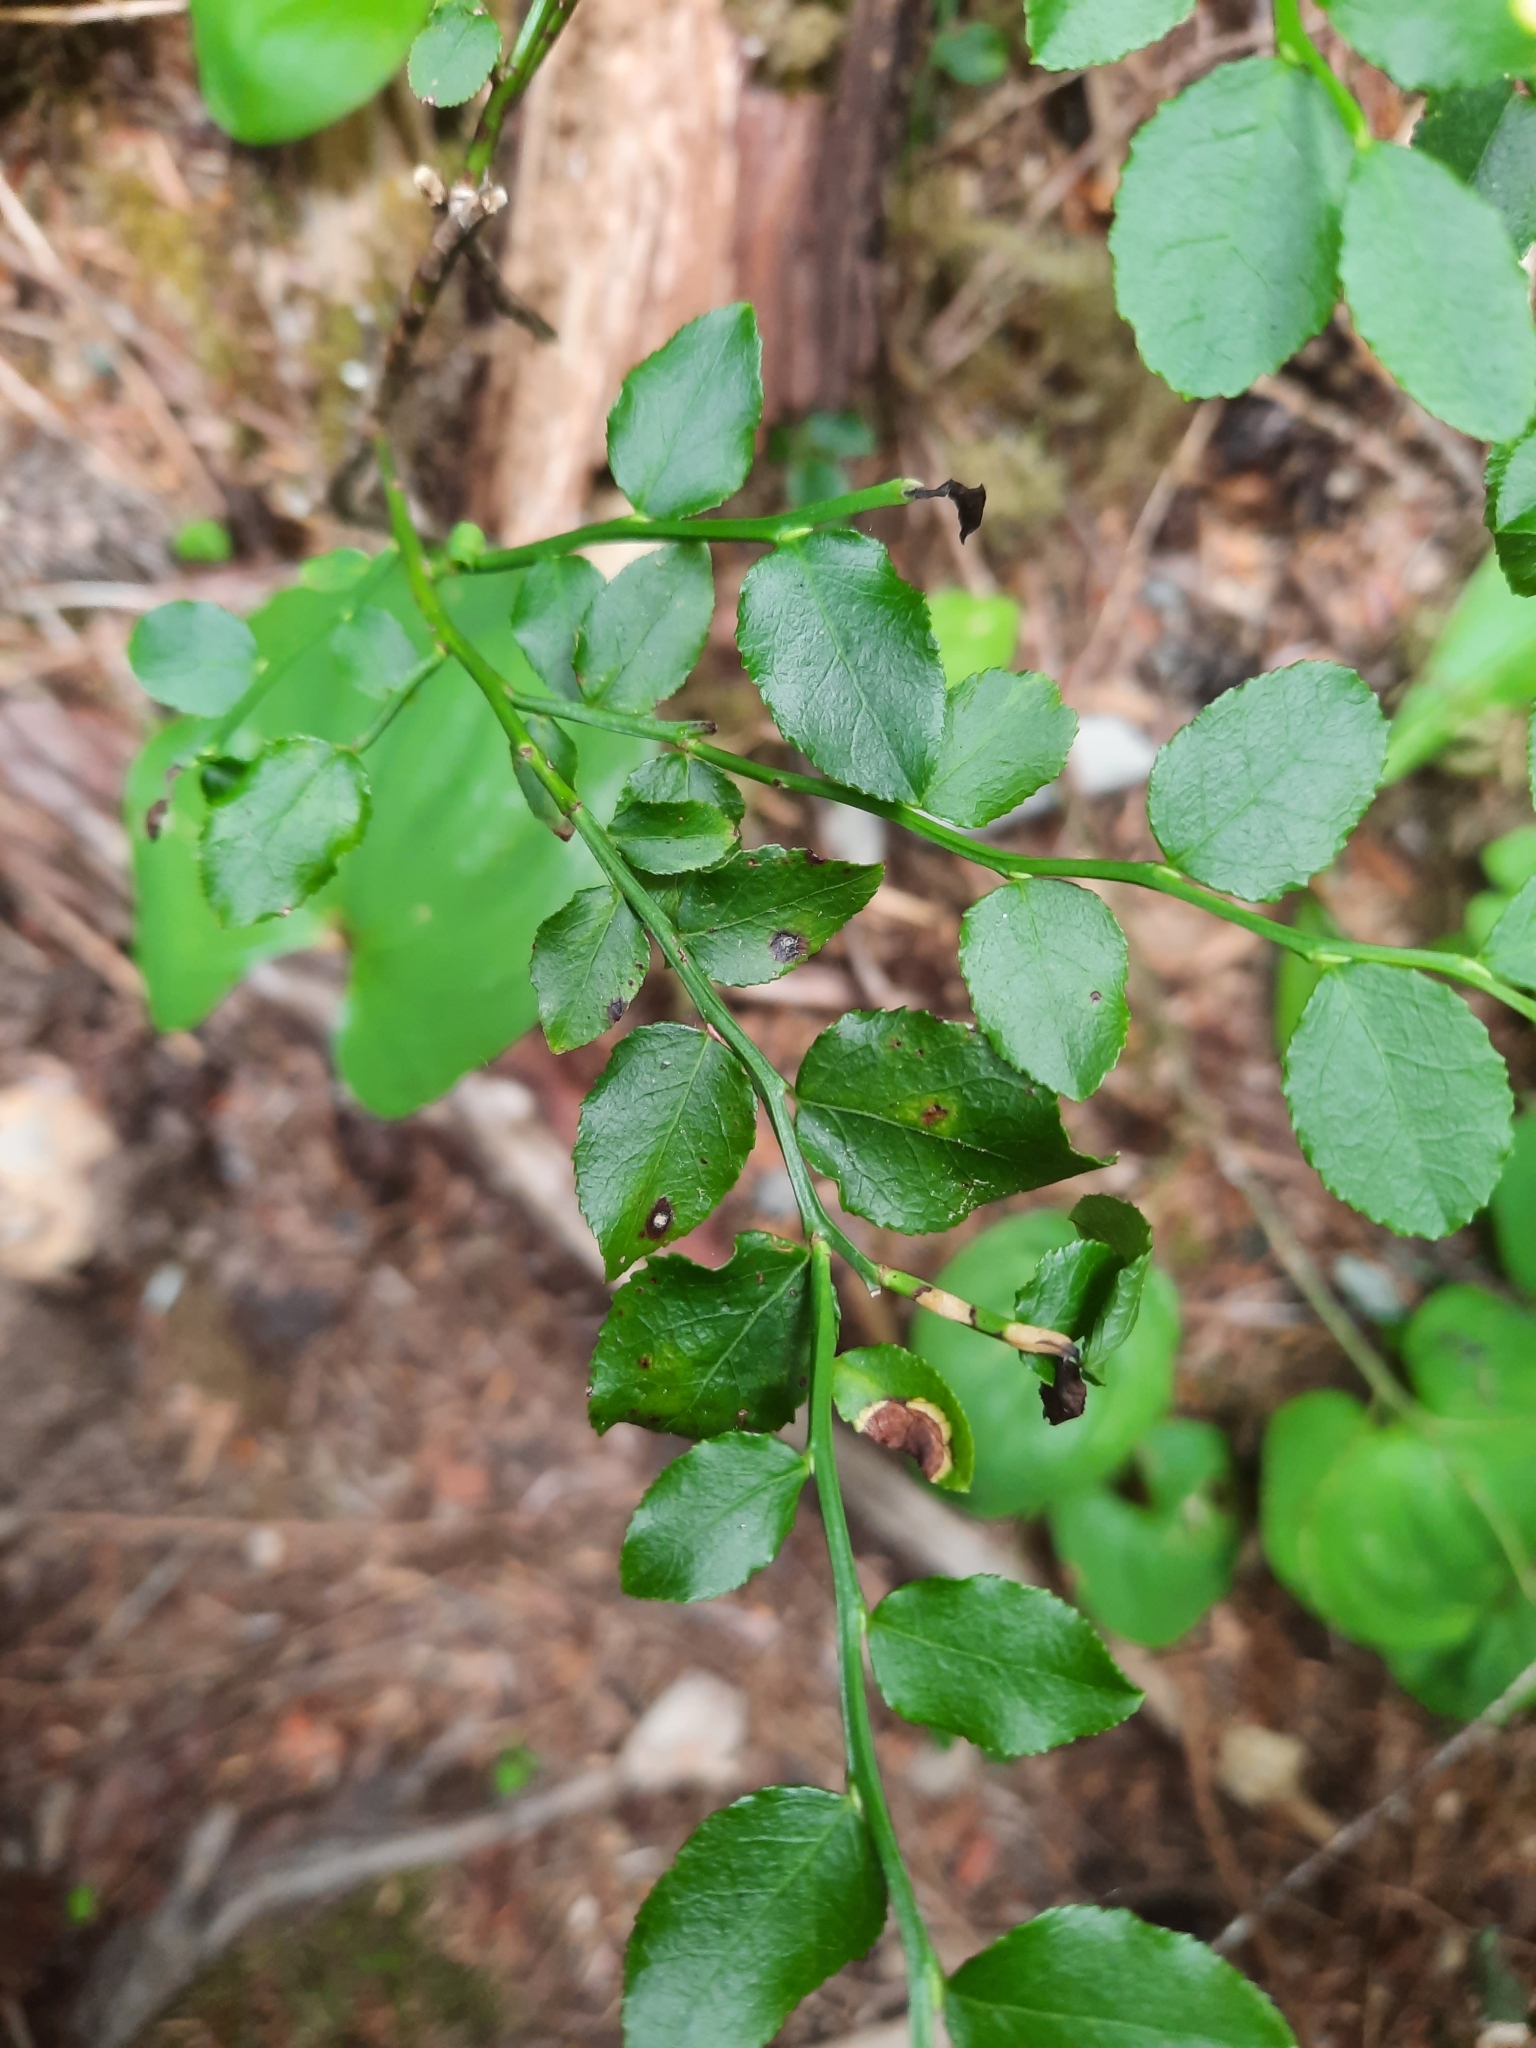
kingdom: Plantae
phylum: Tracheophyta
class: Magnoliopsida
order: Ericales
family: Ericaceae
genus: Vaccinium
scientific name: Vaccinium parvifolium
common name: Red-huckleberry
